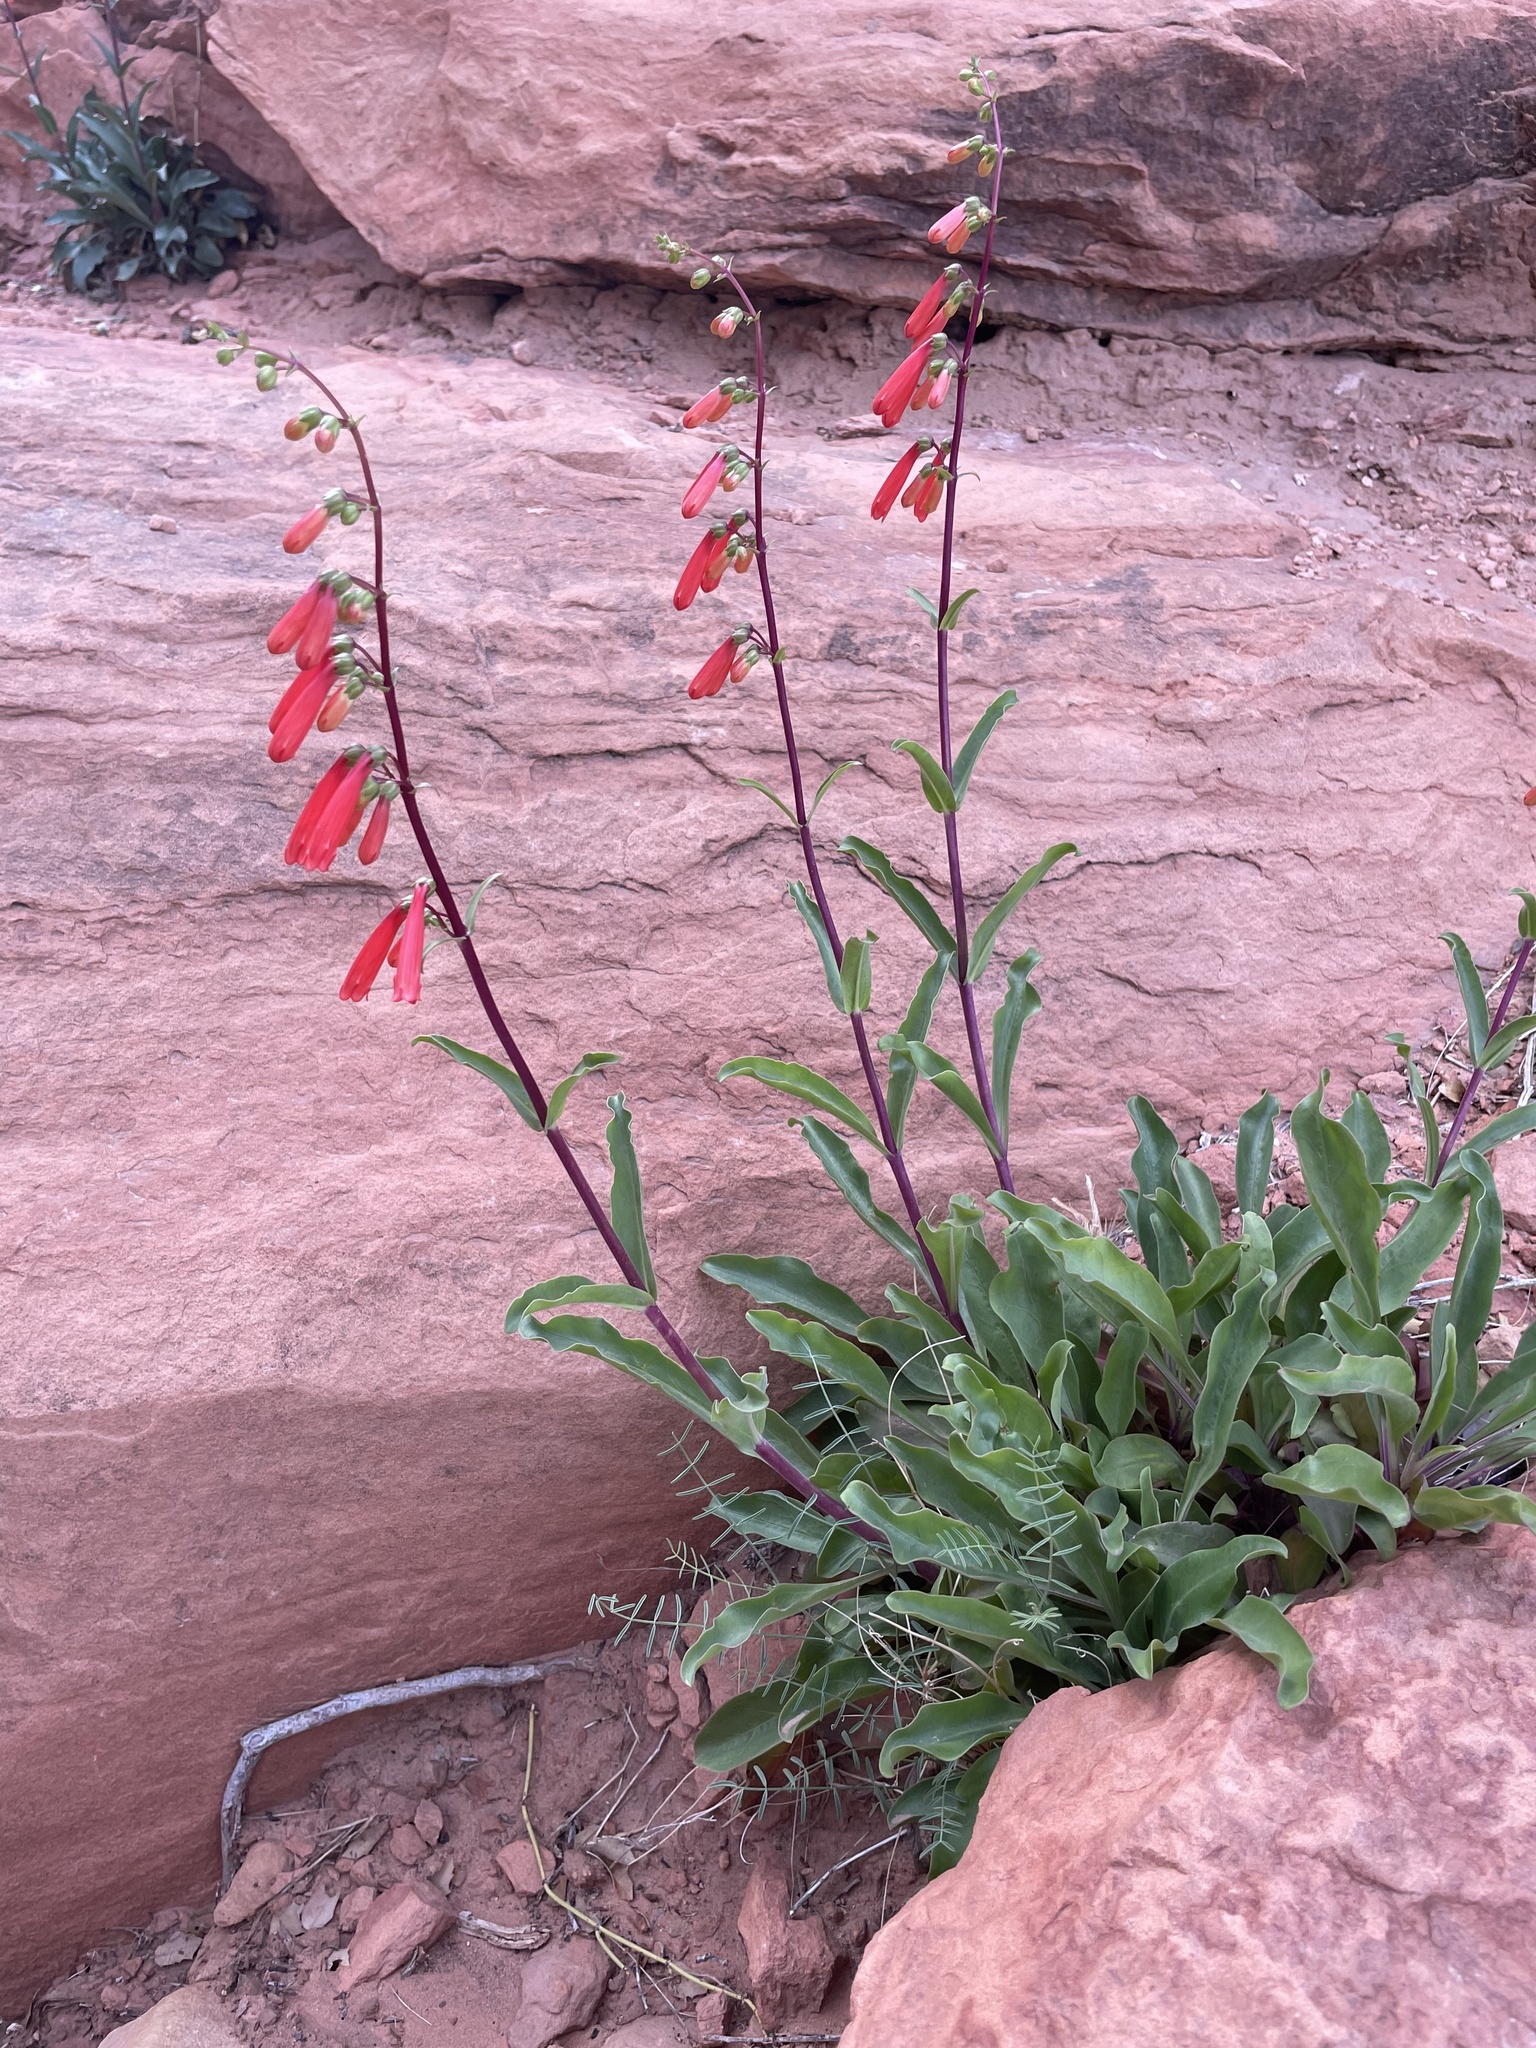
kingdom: Plantae
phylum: Tracheophyta
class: Magnoliopsida
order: Lamiales
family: Plantaginaceae
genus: Penstemon
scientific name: Penstemon eatonii
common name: Eaton's penstemon
